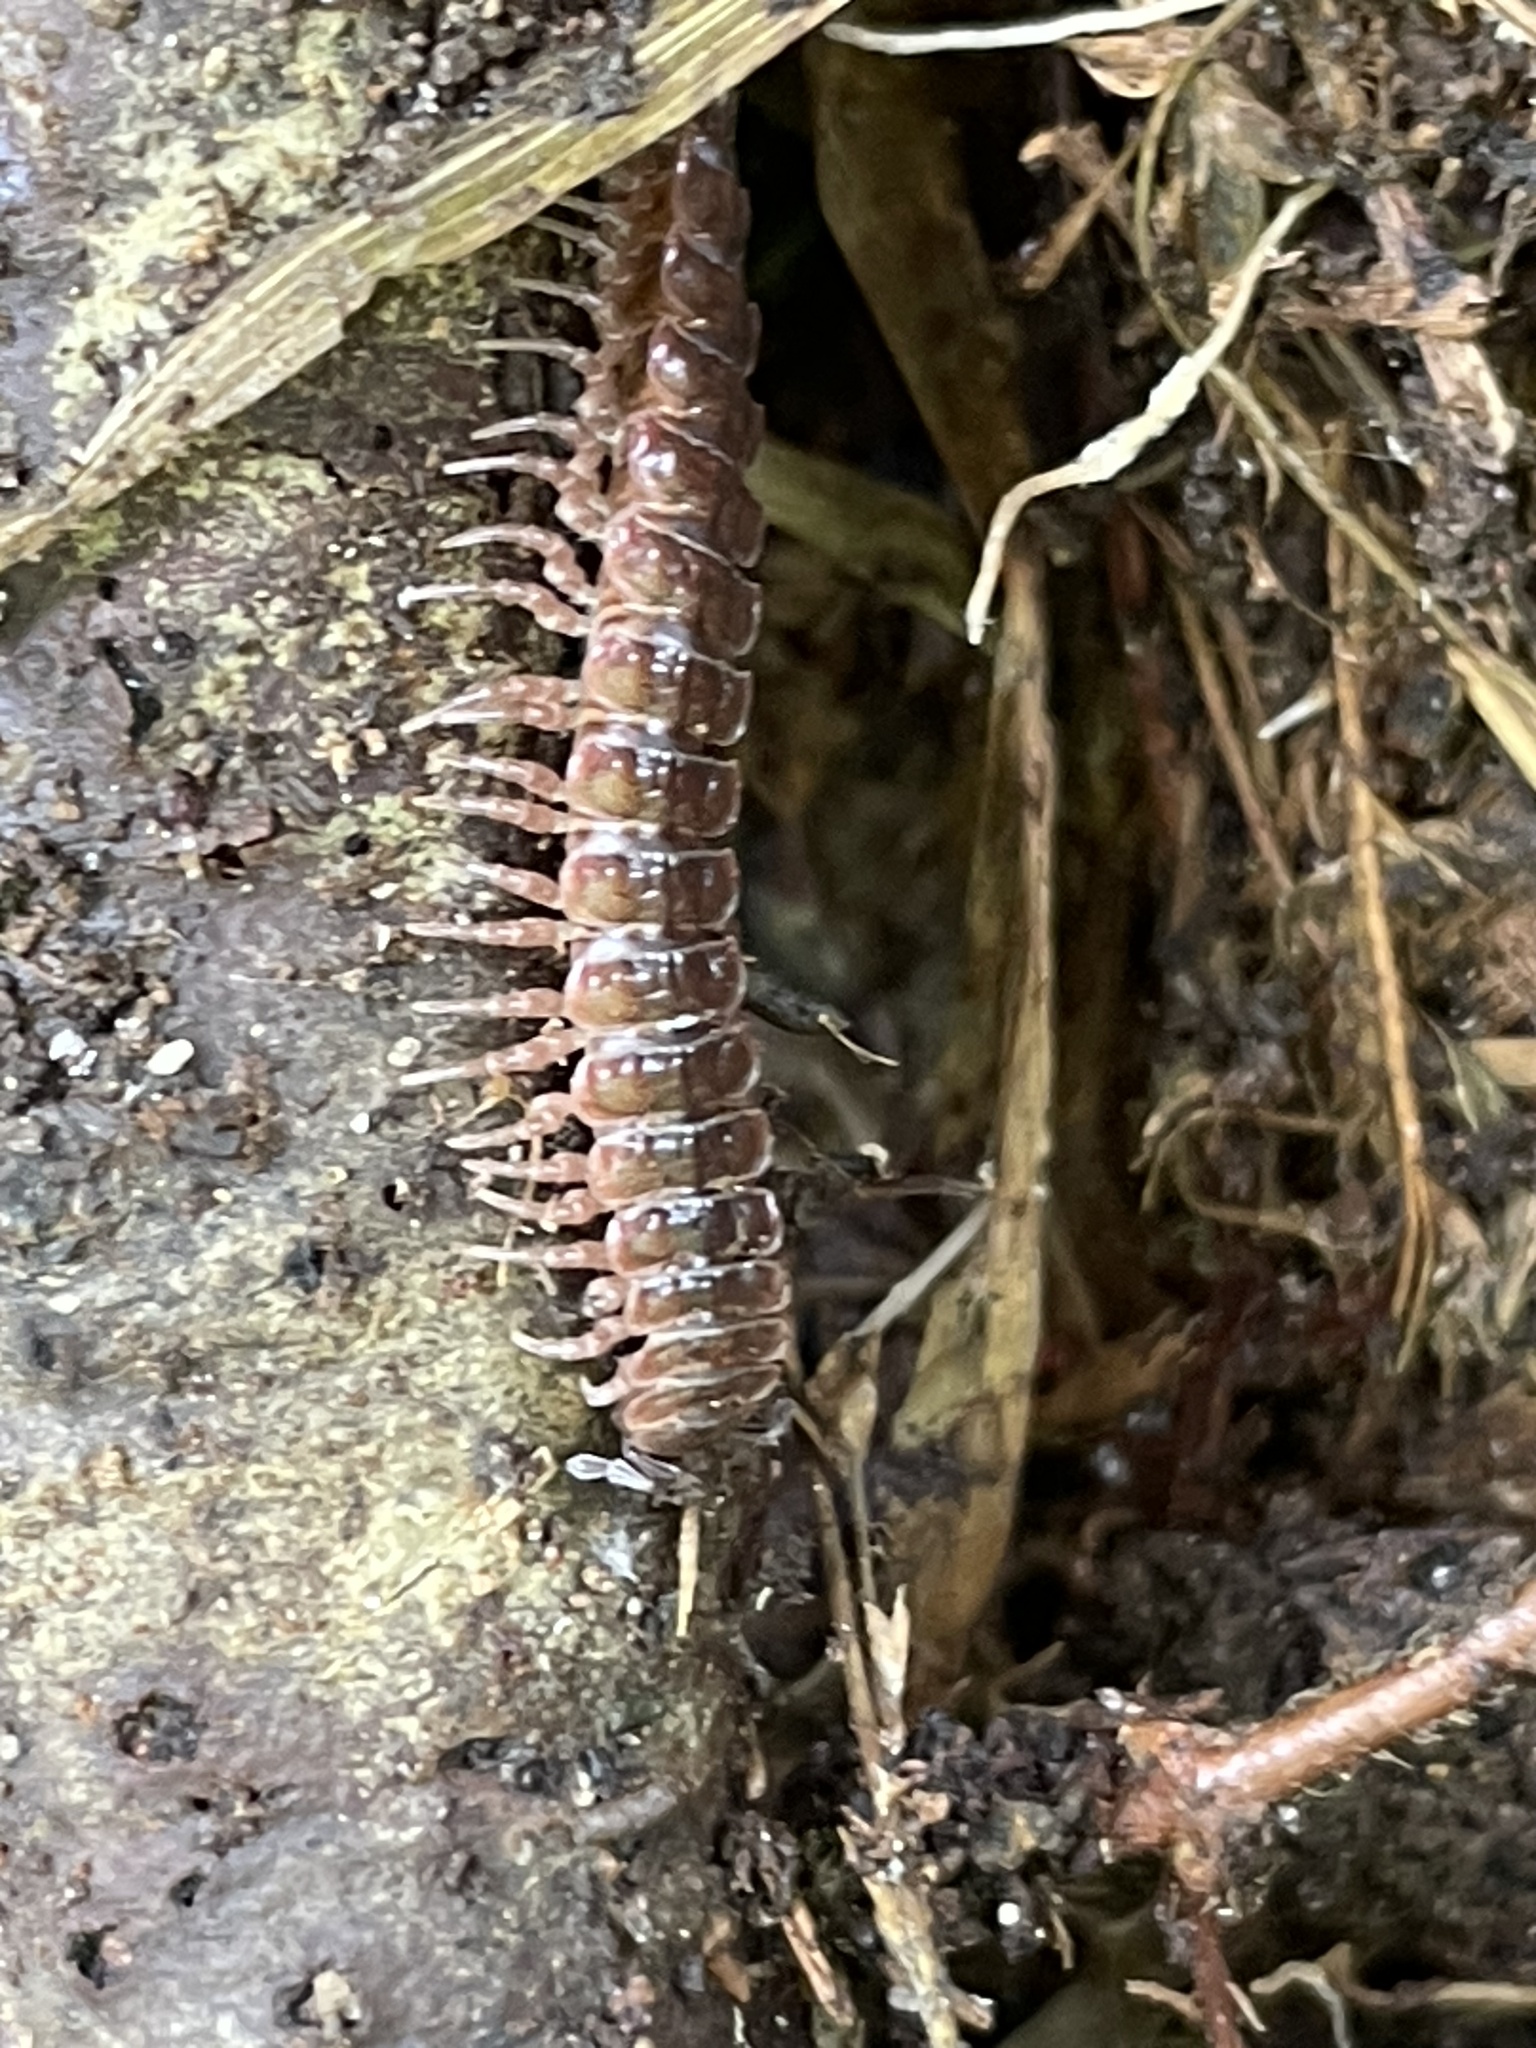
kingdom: Animalia
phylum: Arthropoda
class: Diplopoda
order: Polydesmida
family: Polydesmidae
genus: Pseudopolydesmus
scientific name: Pseudopolydesmus serratus
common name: Common pink flat-back millipede
